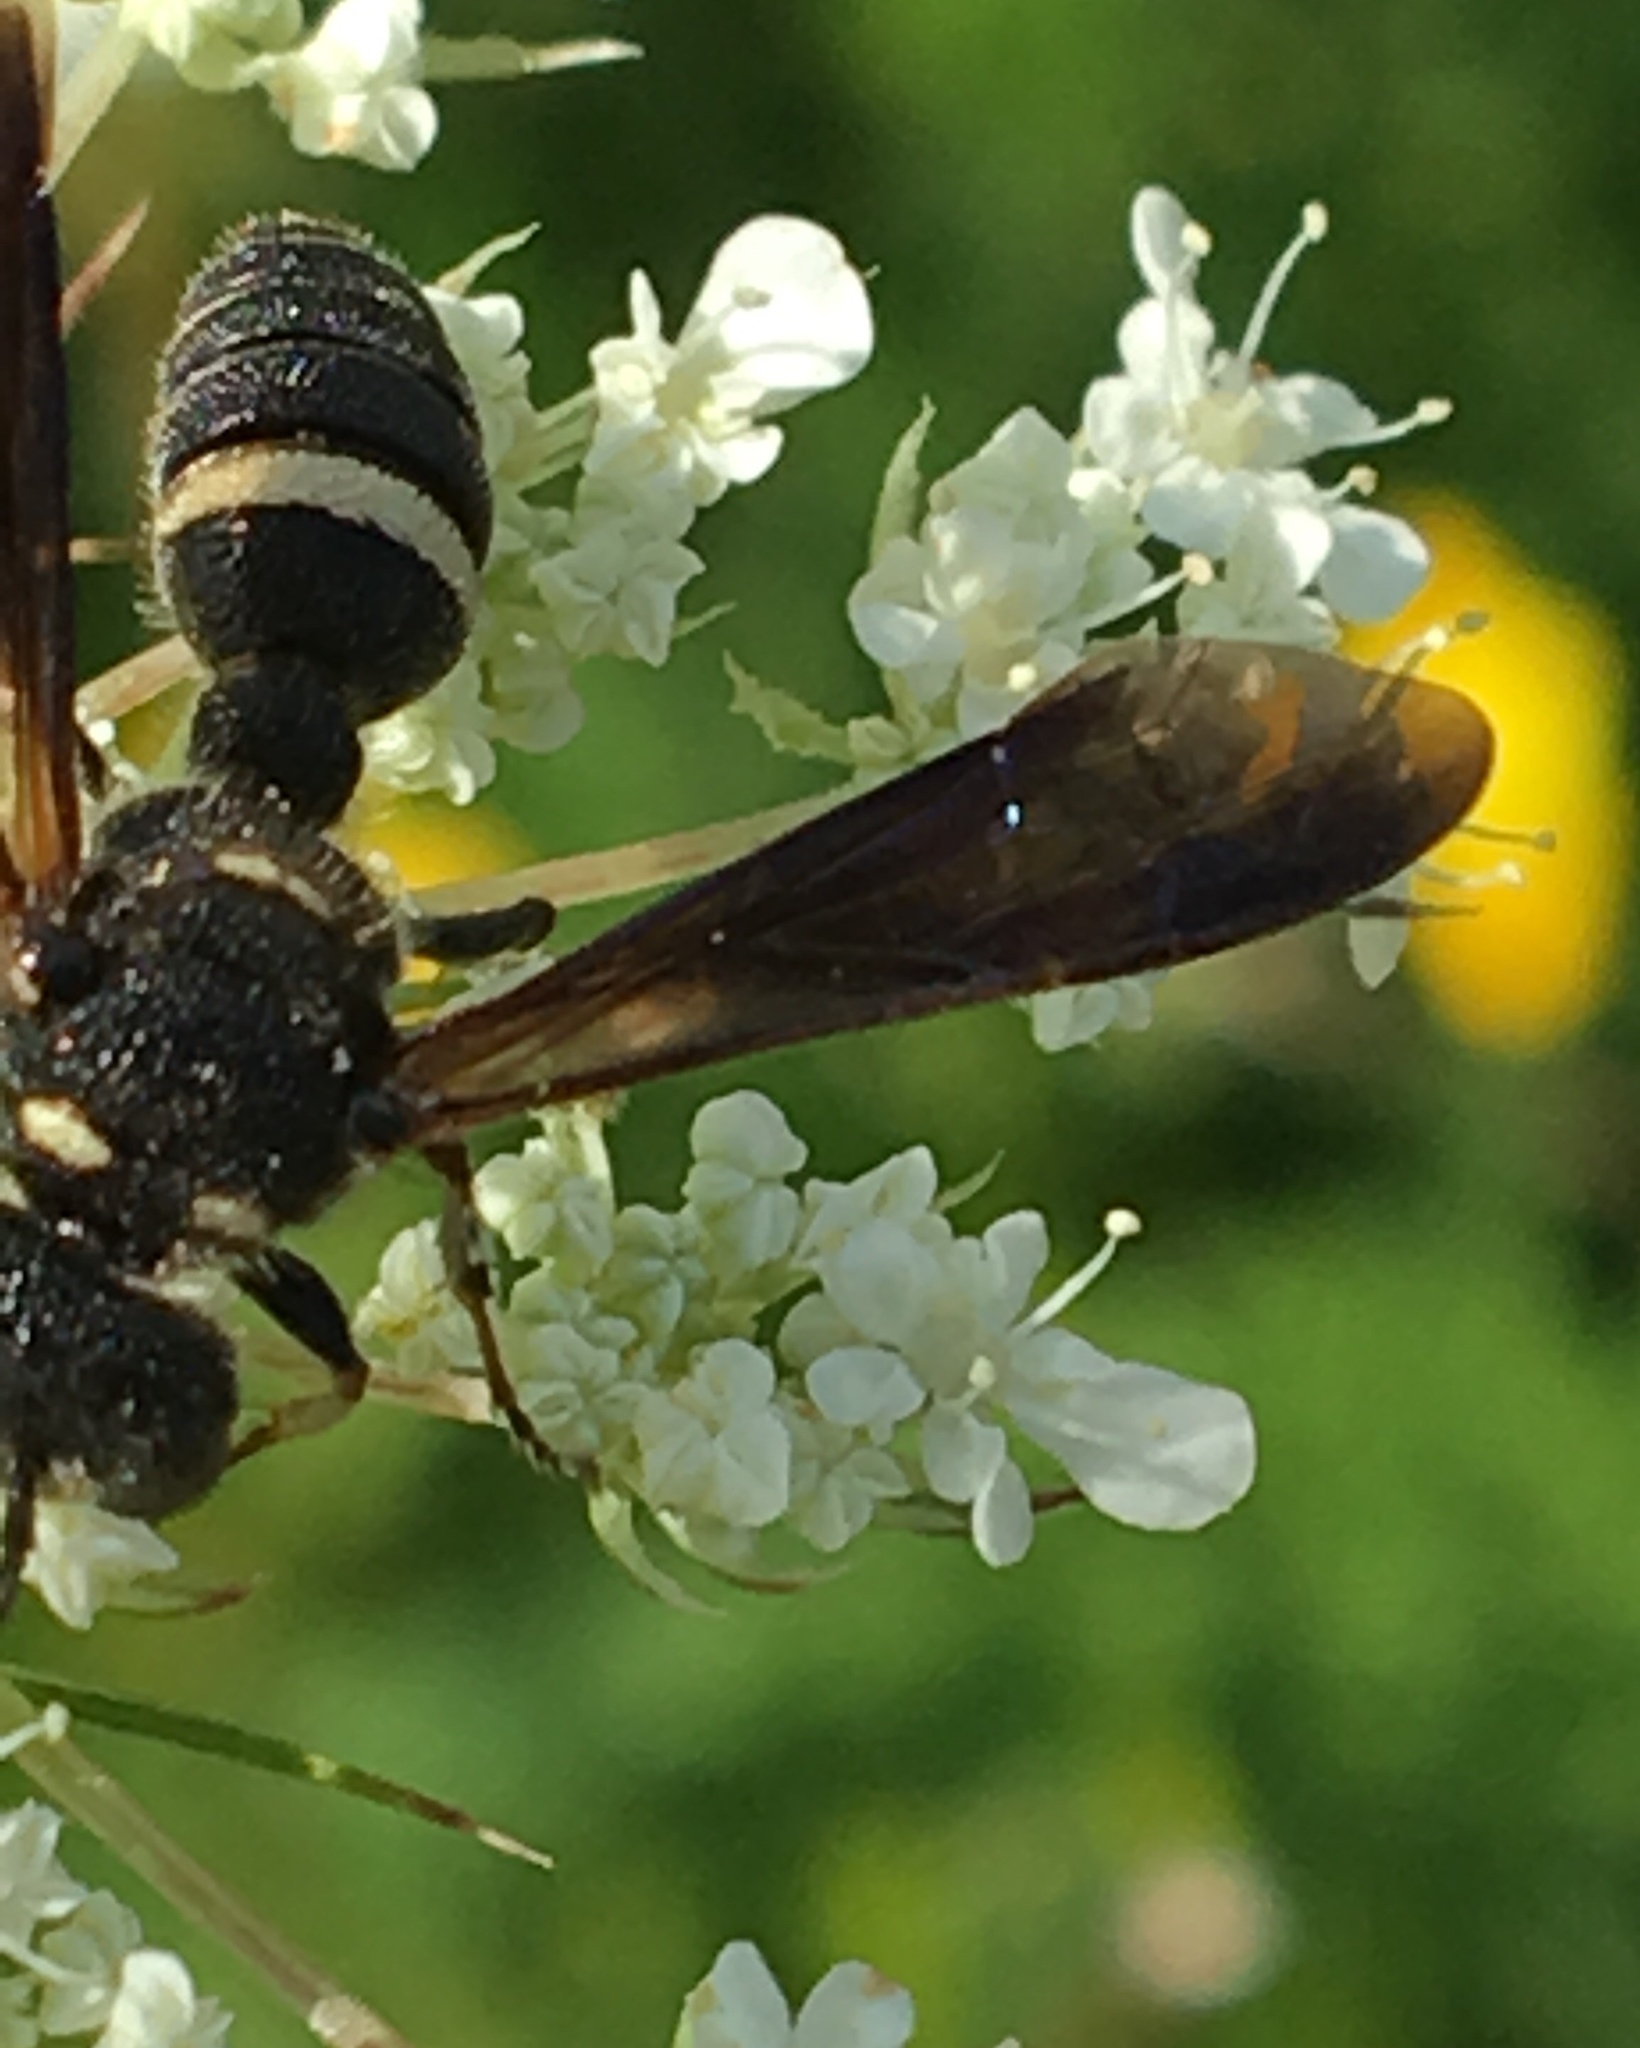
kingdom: Animalia
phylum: Arthropoda
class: Insecta
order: Hymenoptera
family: Crabronidae
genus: Cerceris
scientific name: Cerceris fumipennis
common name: Smokey-winged beetle bandit wasp
